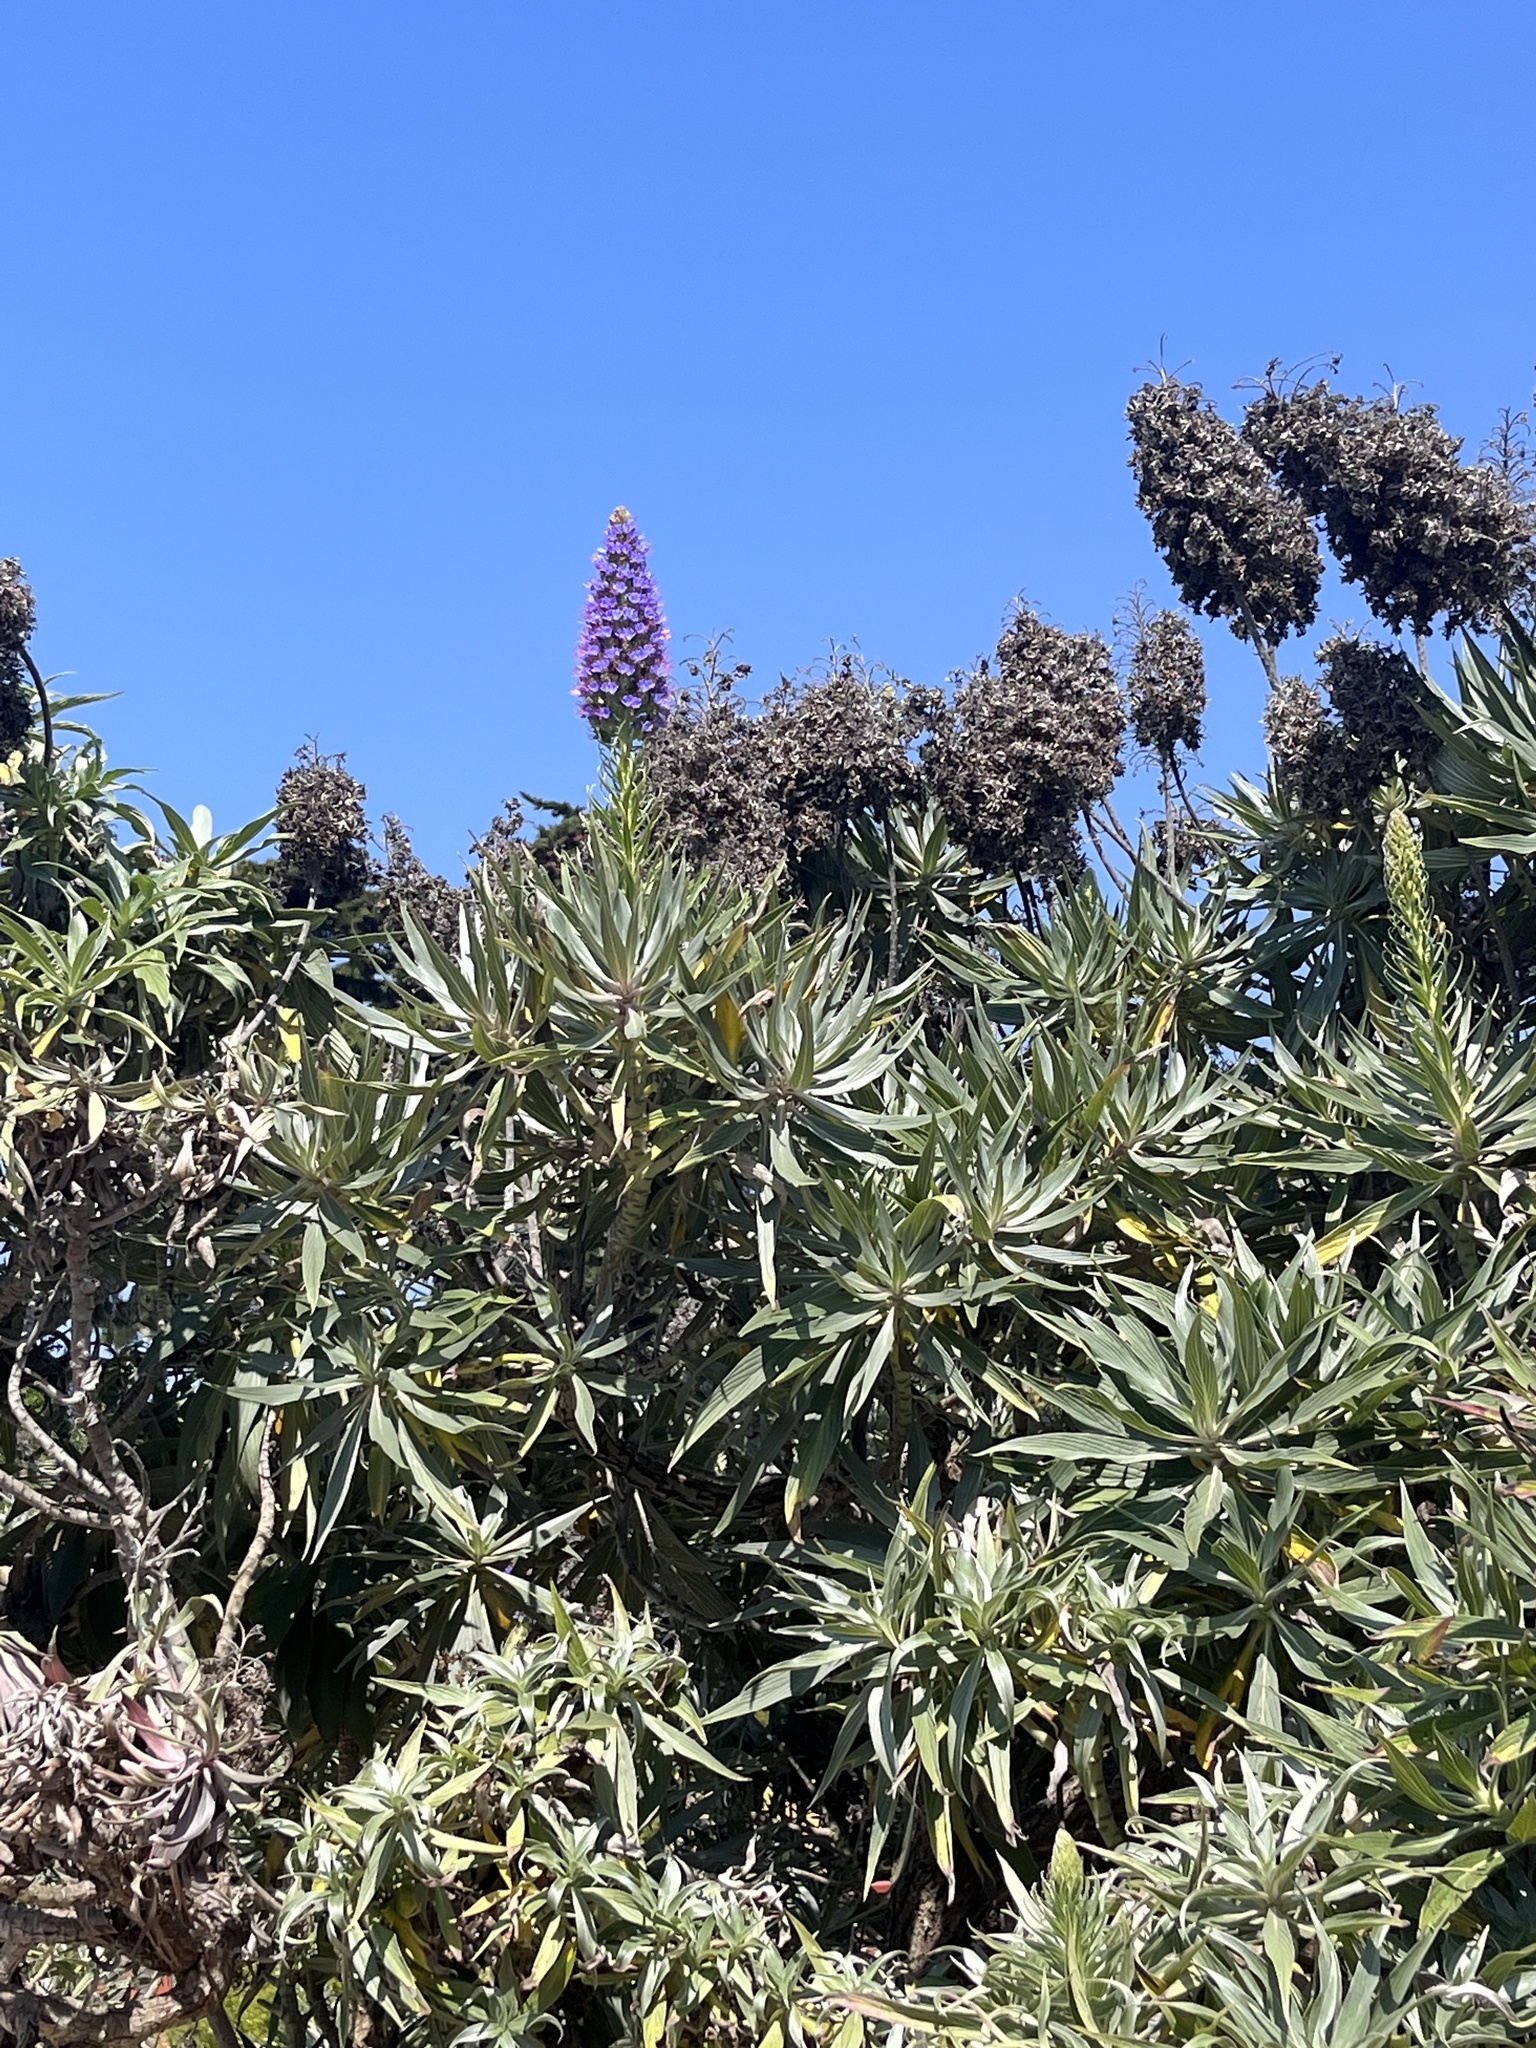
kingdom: Plantae
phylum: Tracheophyta
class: Magnoliopsida
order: Boraginales
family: Boraginaceae
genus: Echium
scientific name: Echium candicans
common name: Pride of madeira
